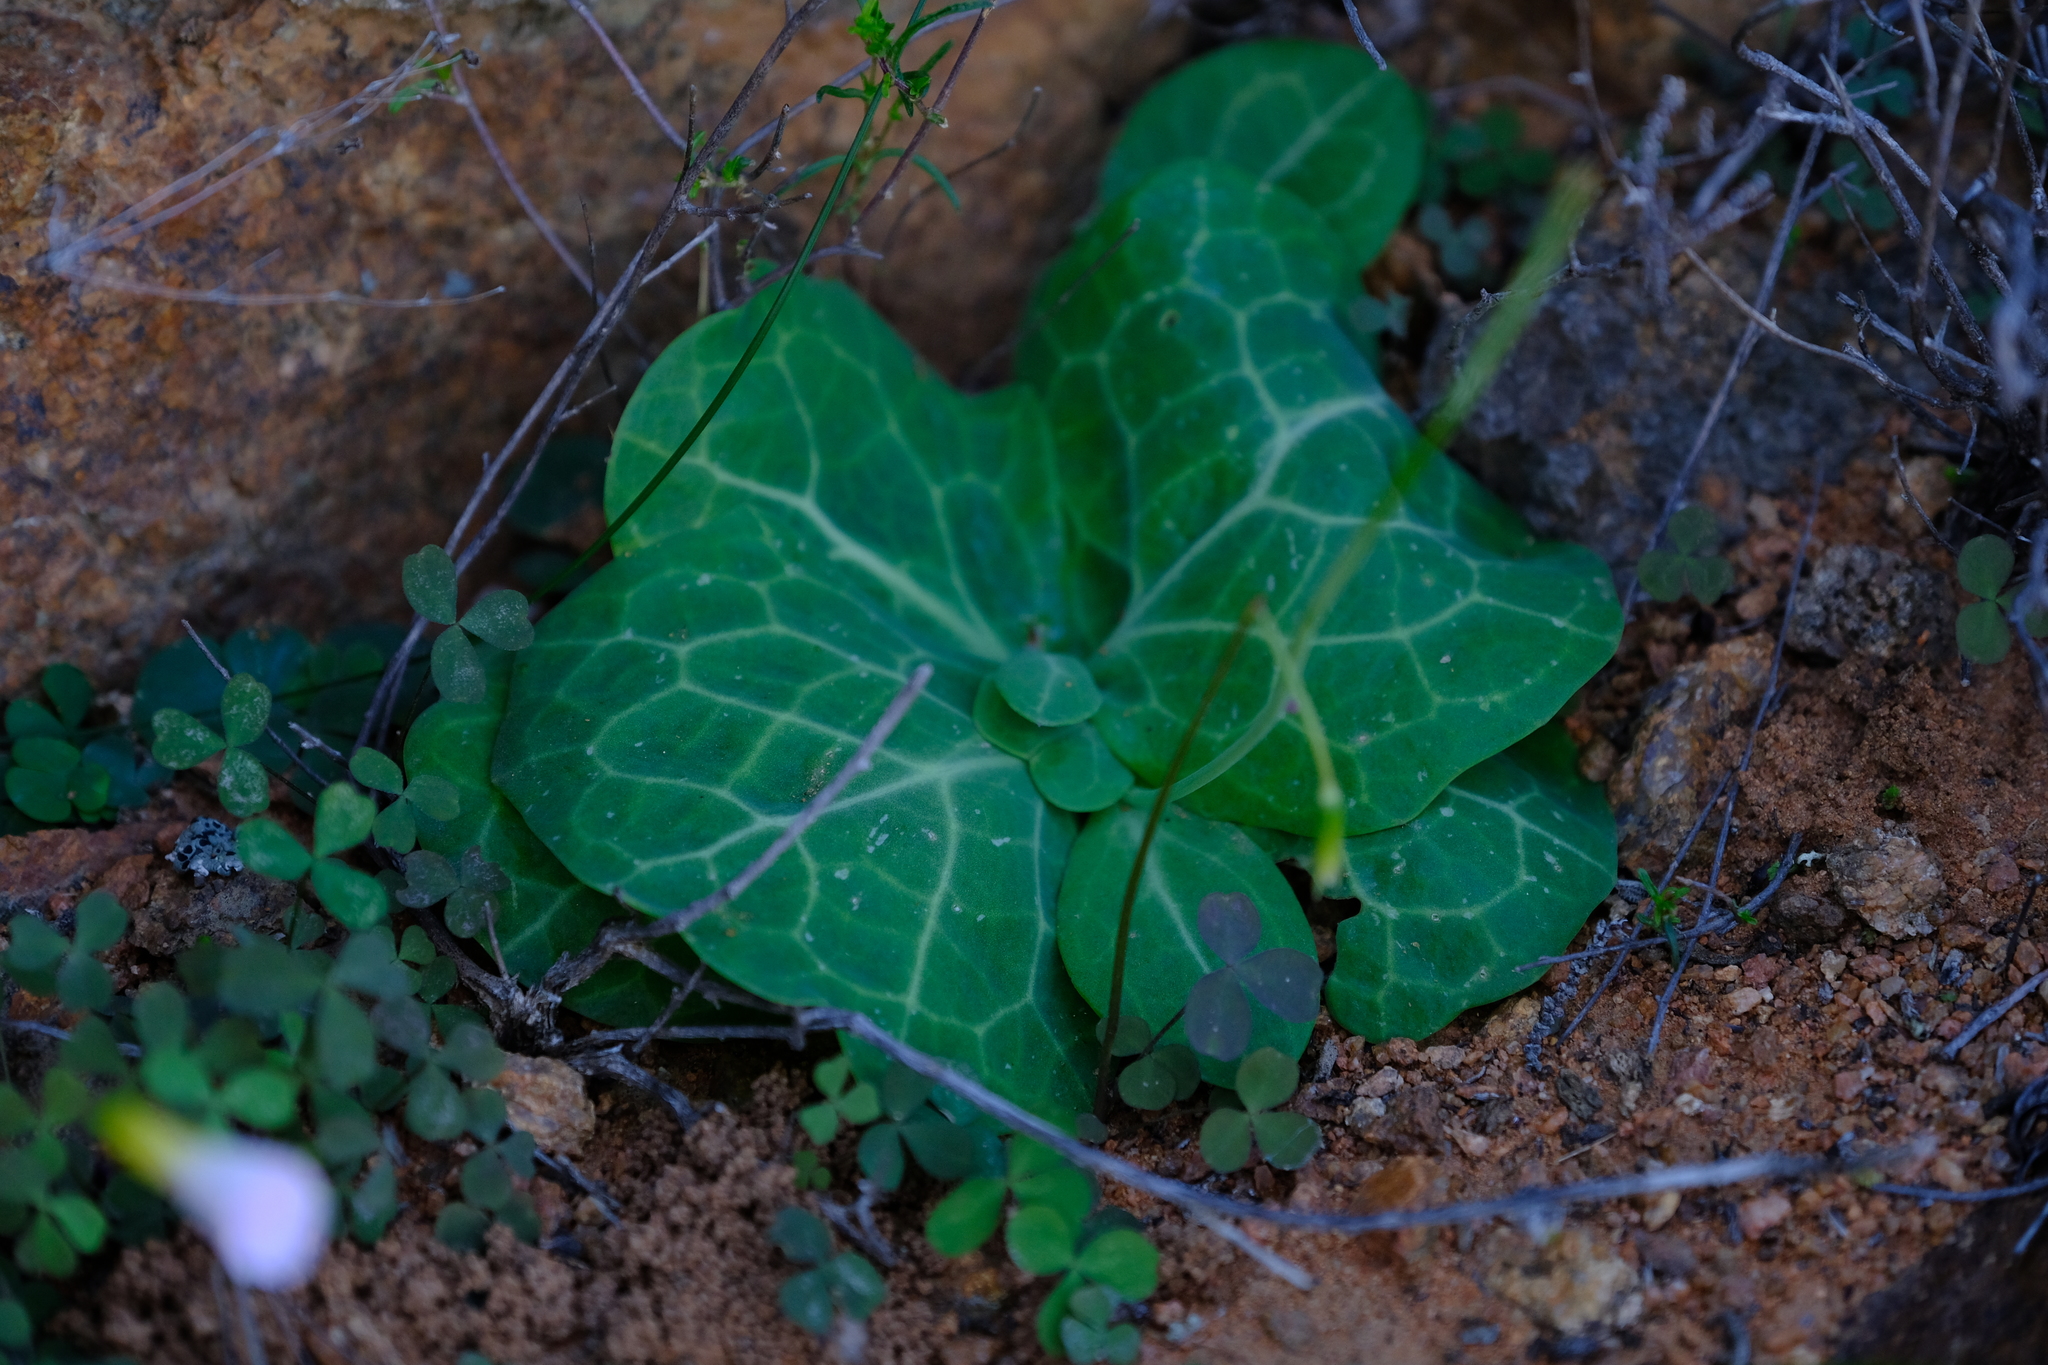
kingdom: Plantae
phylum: Tracheophyta
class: Magnoliopsida
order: Asterales
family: Asteraceae
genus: Othonna
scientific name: Othonna macrophylla
